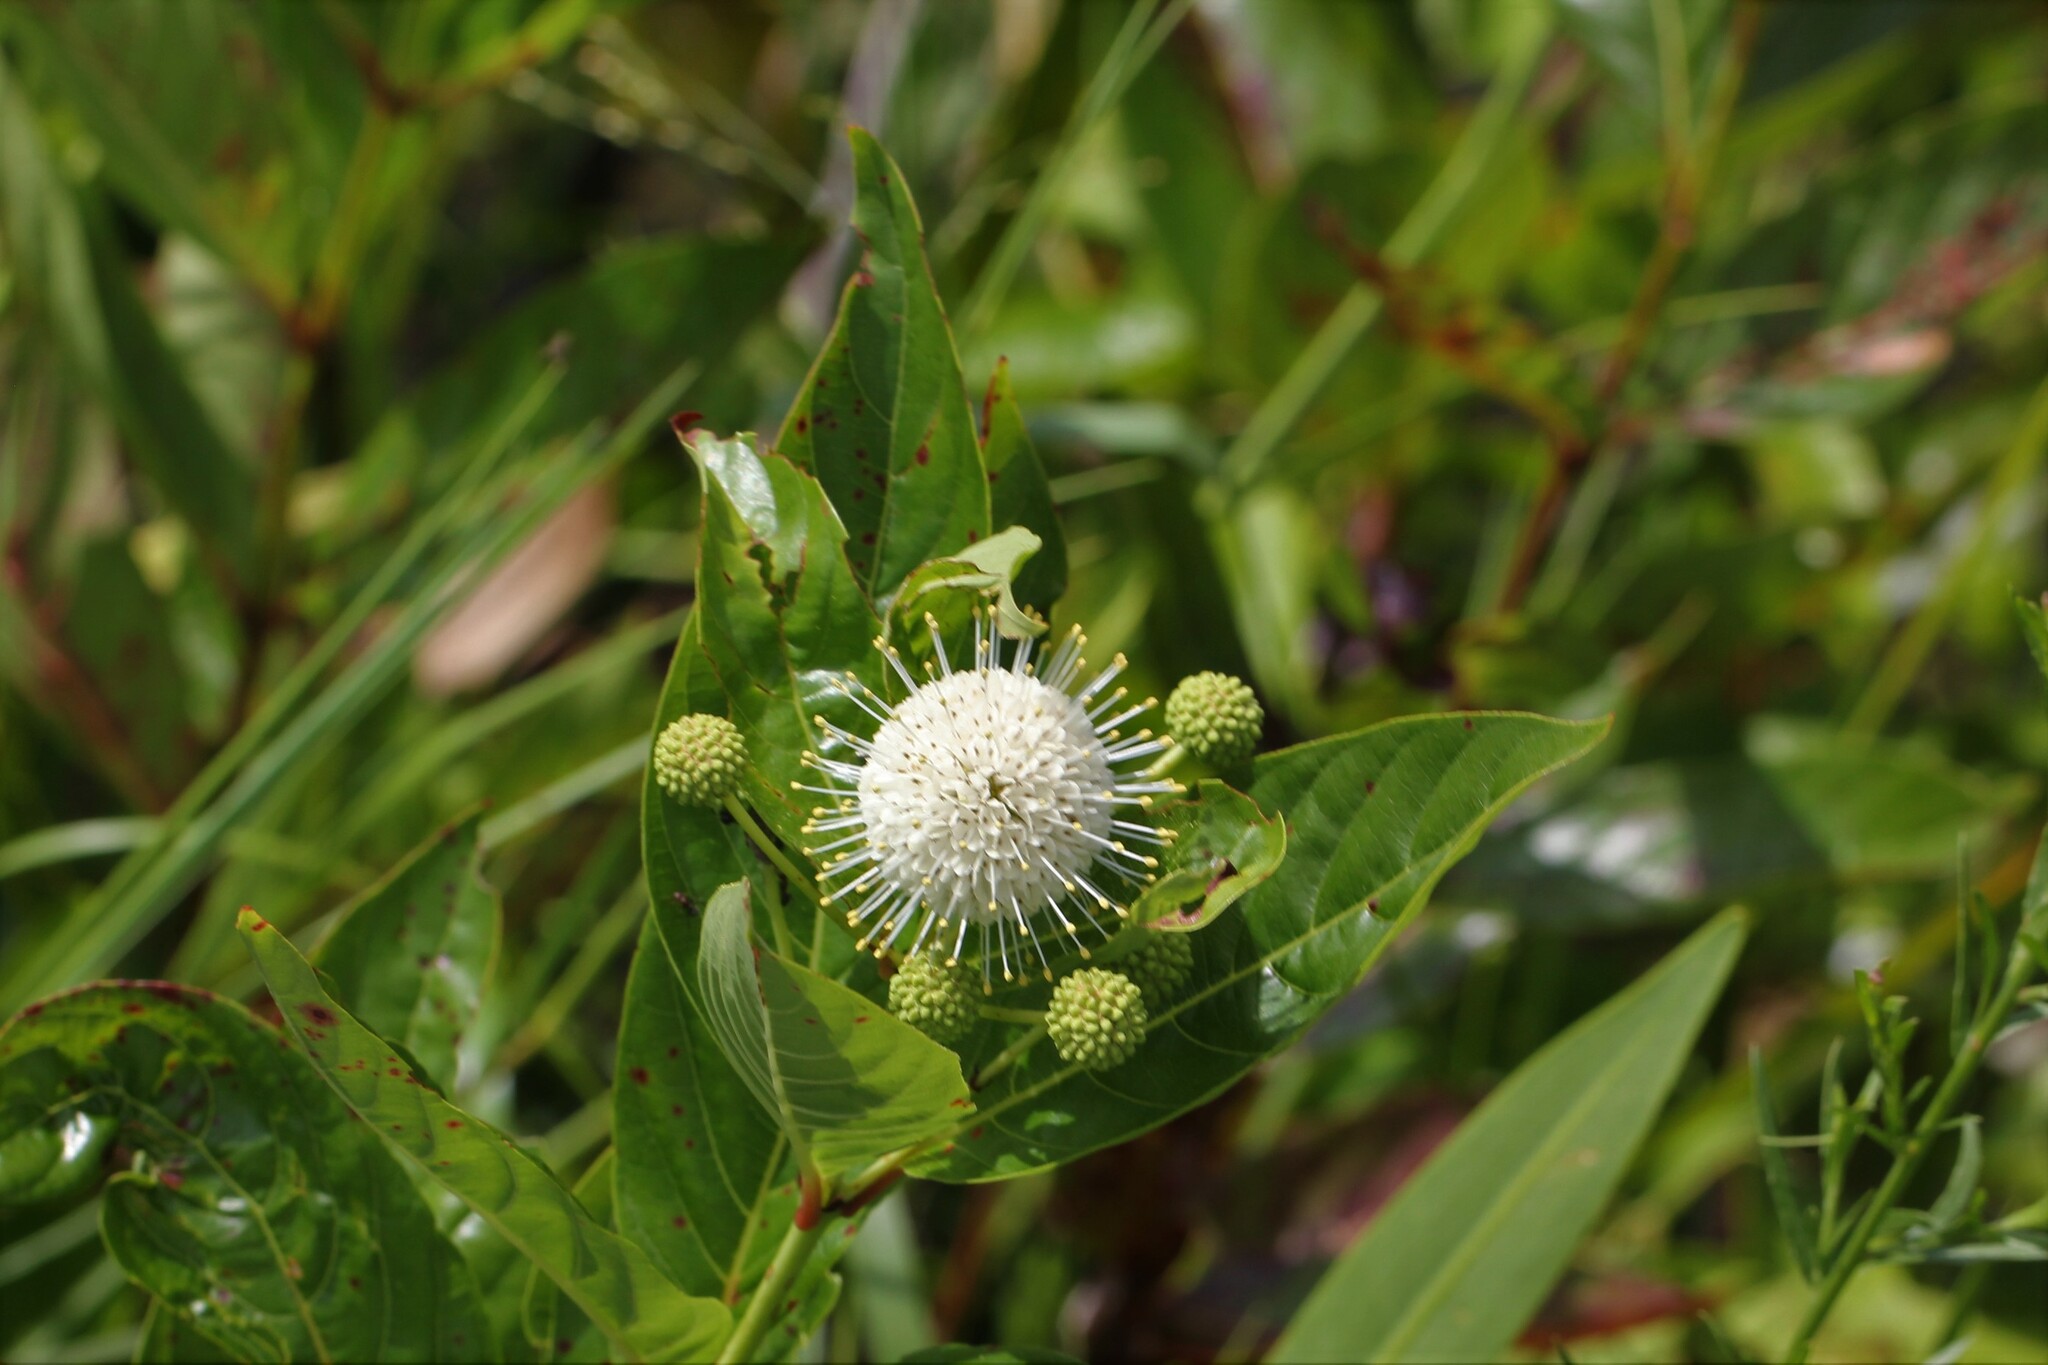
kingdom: Plantae
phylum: Tracheophyta
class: Magnoliopsida
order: Gentianales
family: Rubiaceae
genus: Cephalanthus
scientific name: Cephalanthus occidentalis
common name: Button-willow
